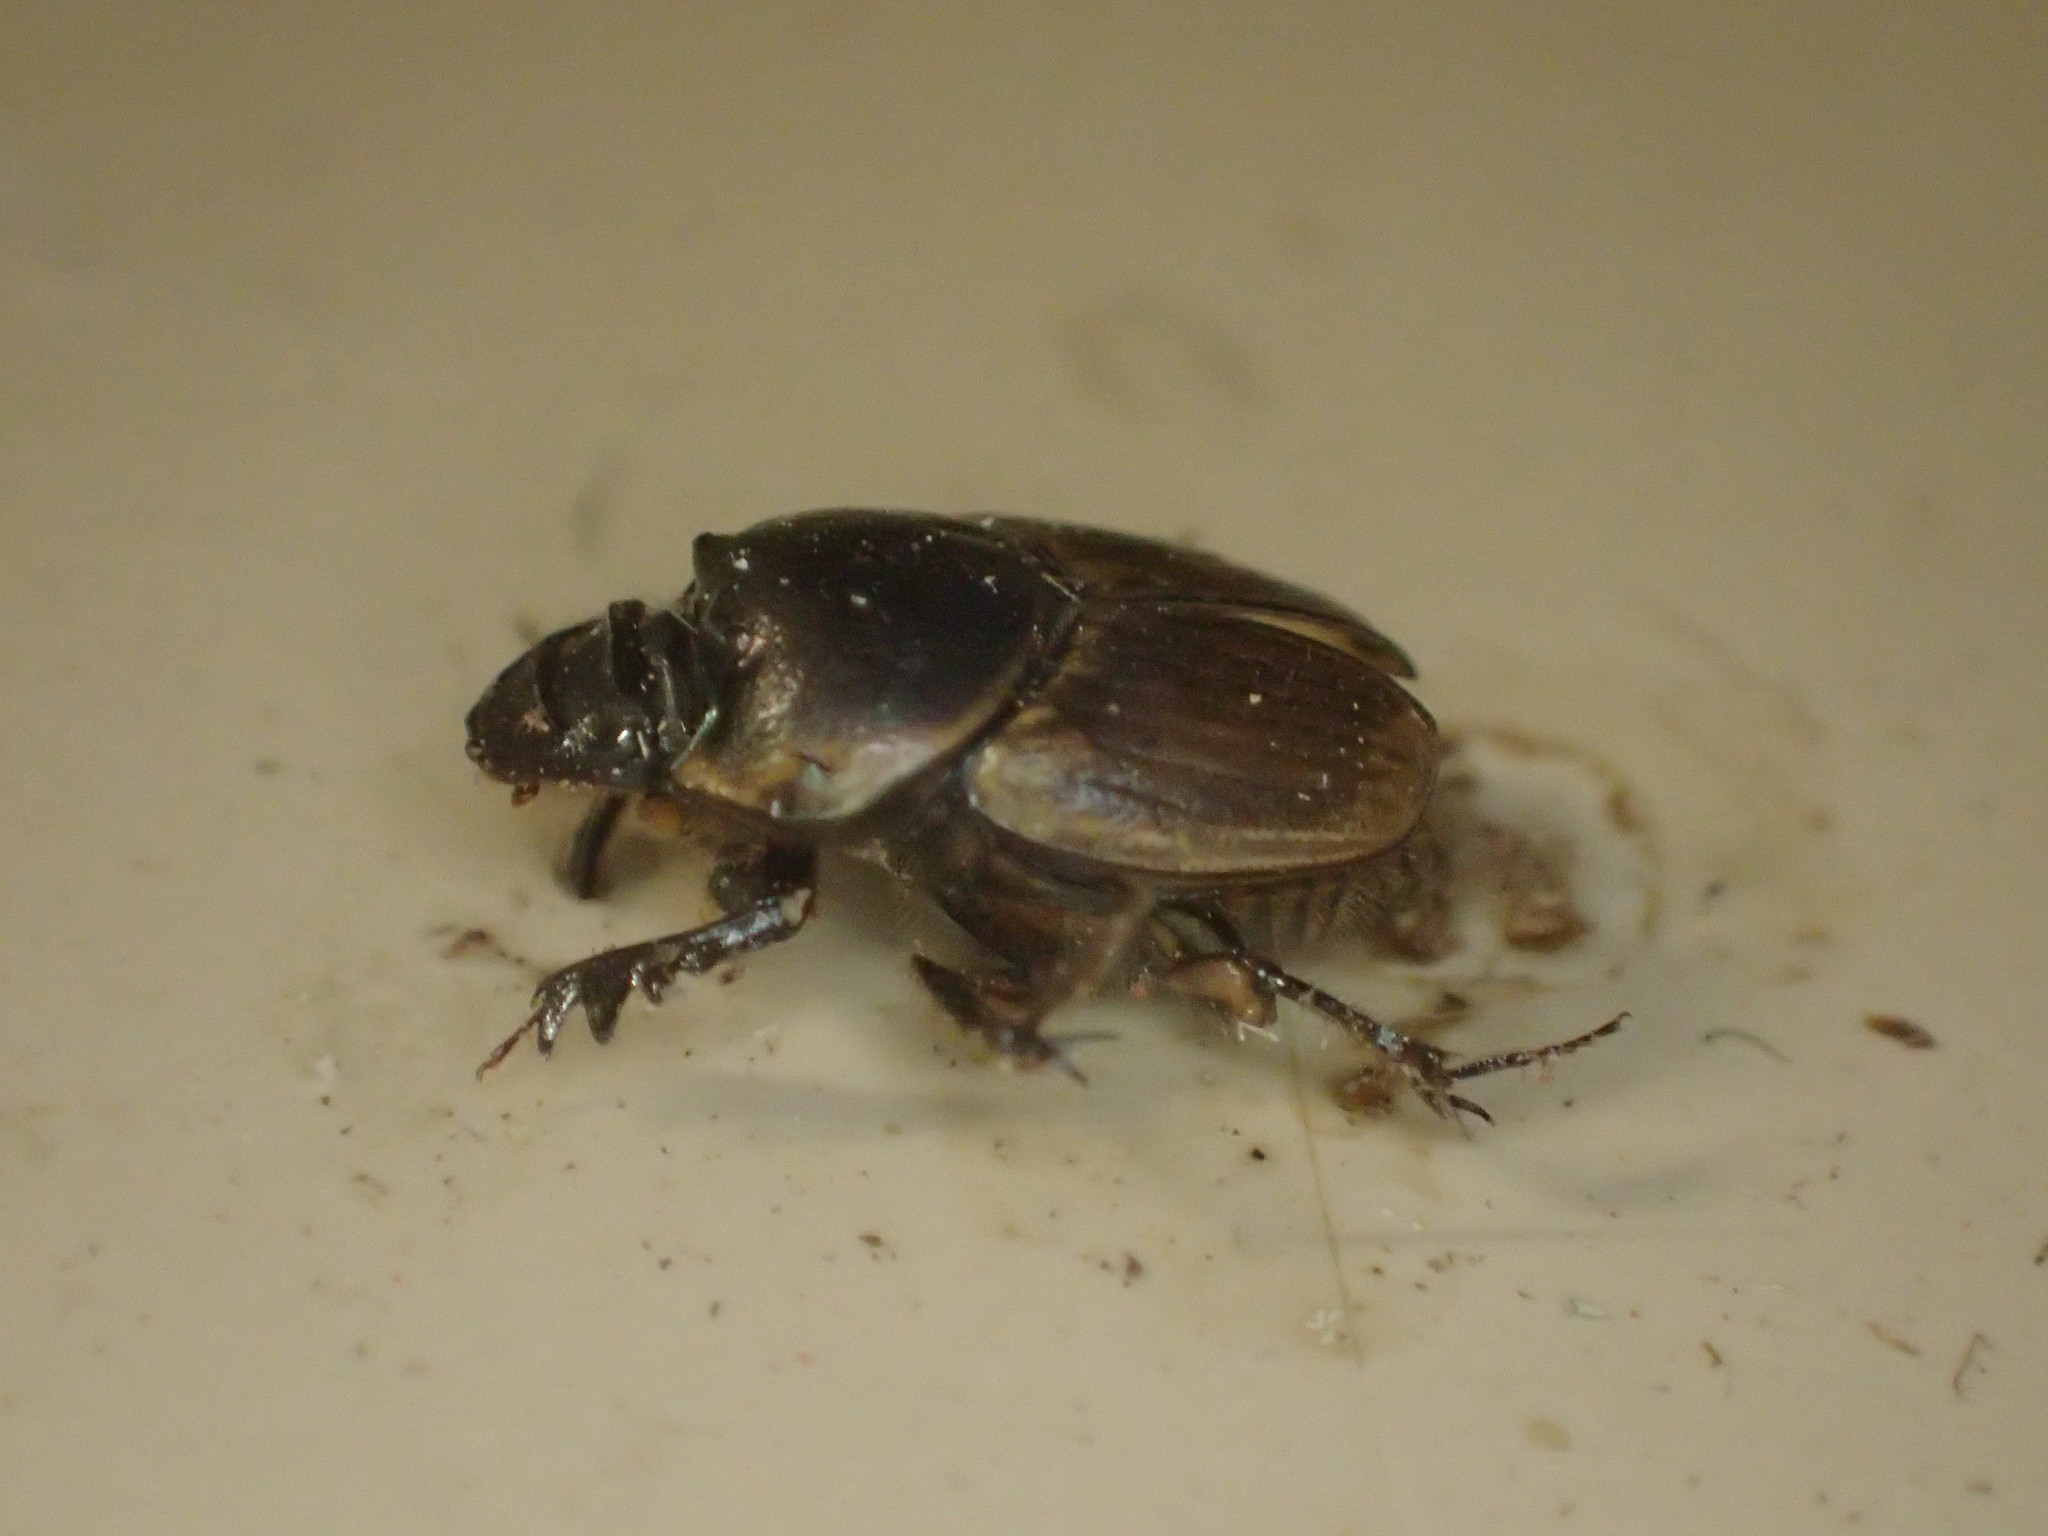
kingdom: Animalia
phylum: Arthropoda
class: Insecta
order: Coleoptera
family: Scarabaeidae
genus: Digitonthophagus
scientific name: Digitonthophagus gazella
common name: Brown dung beetle
